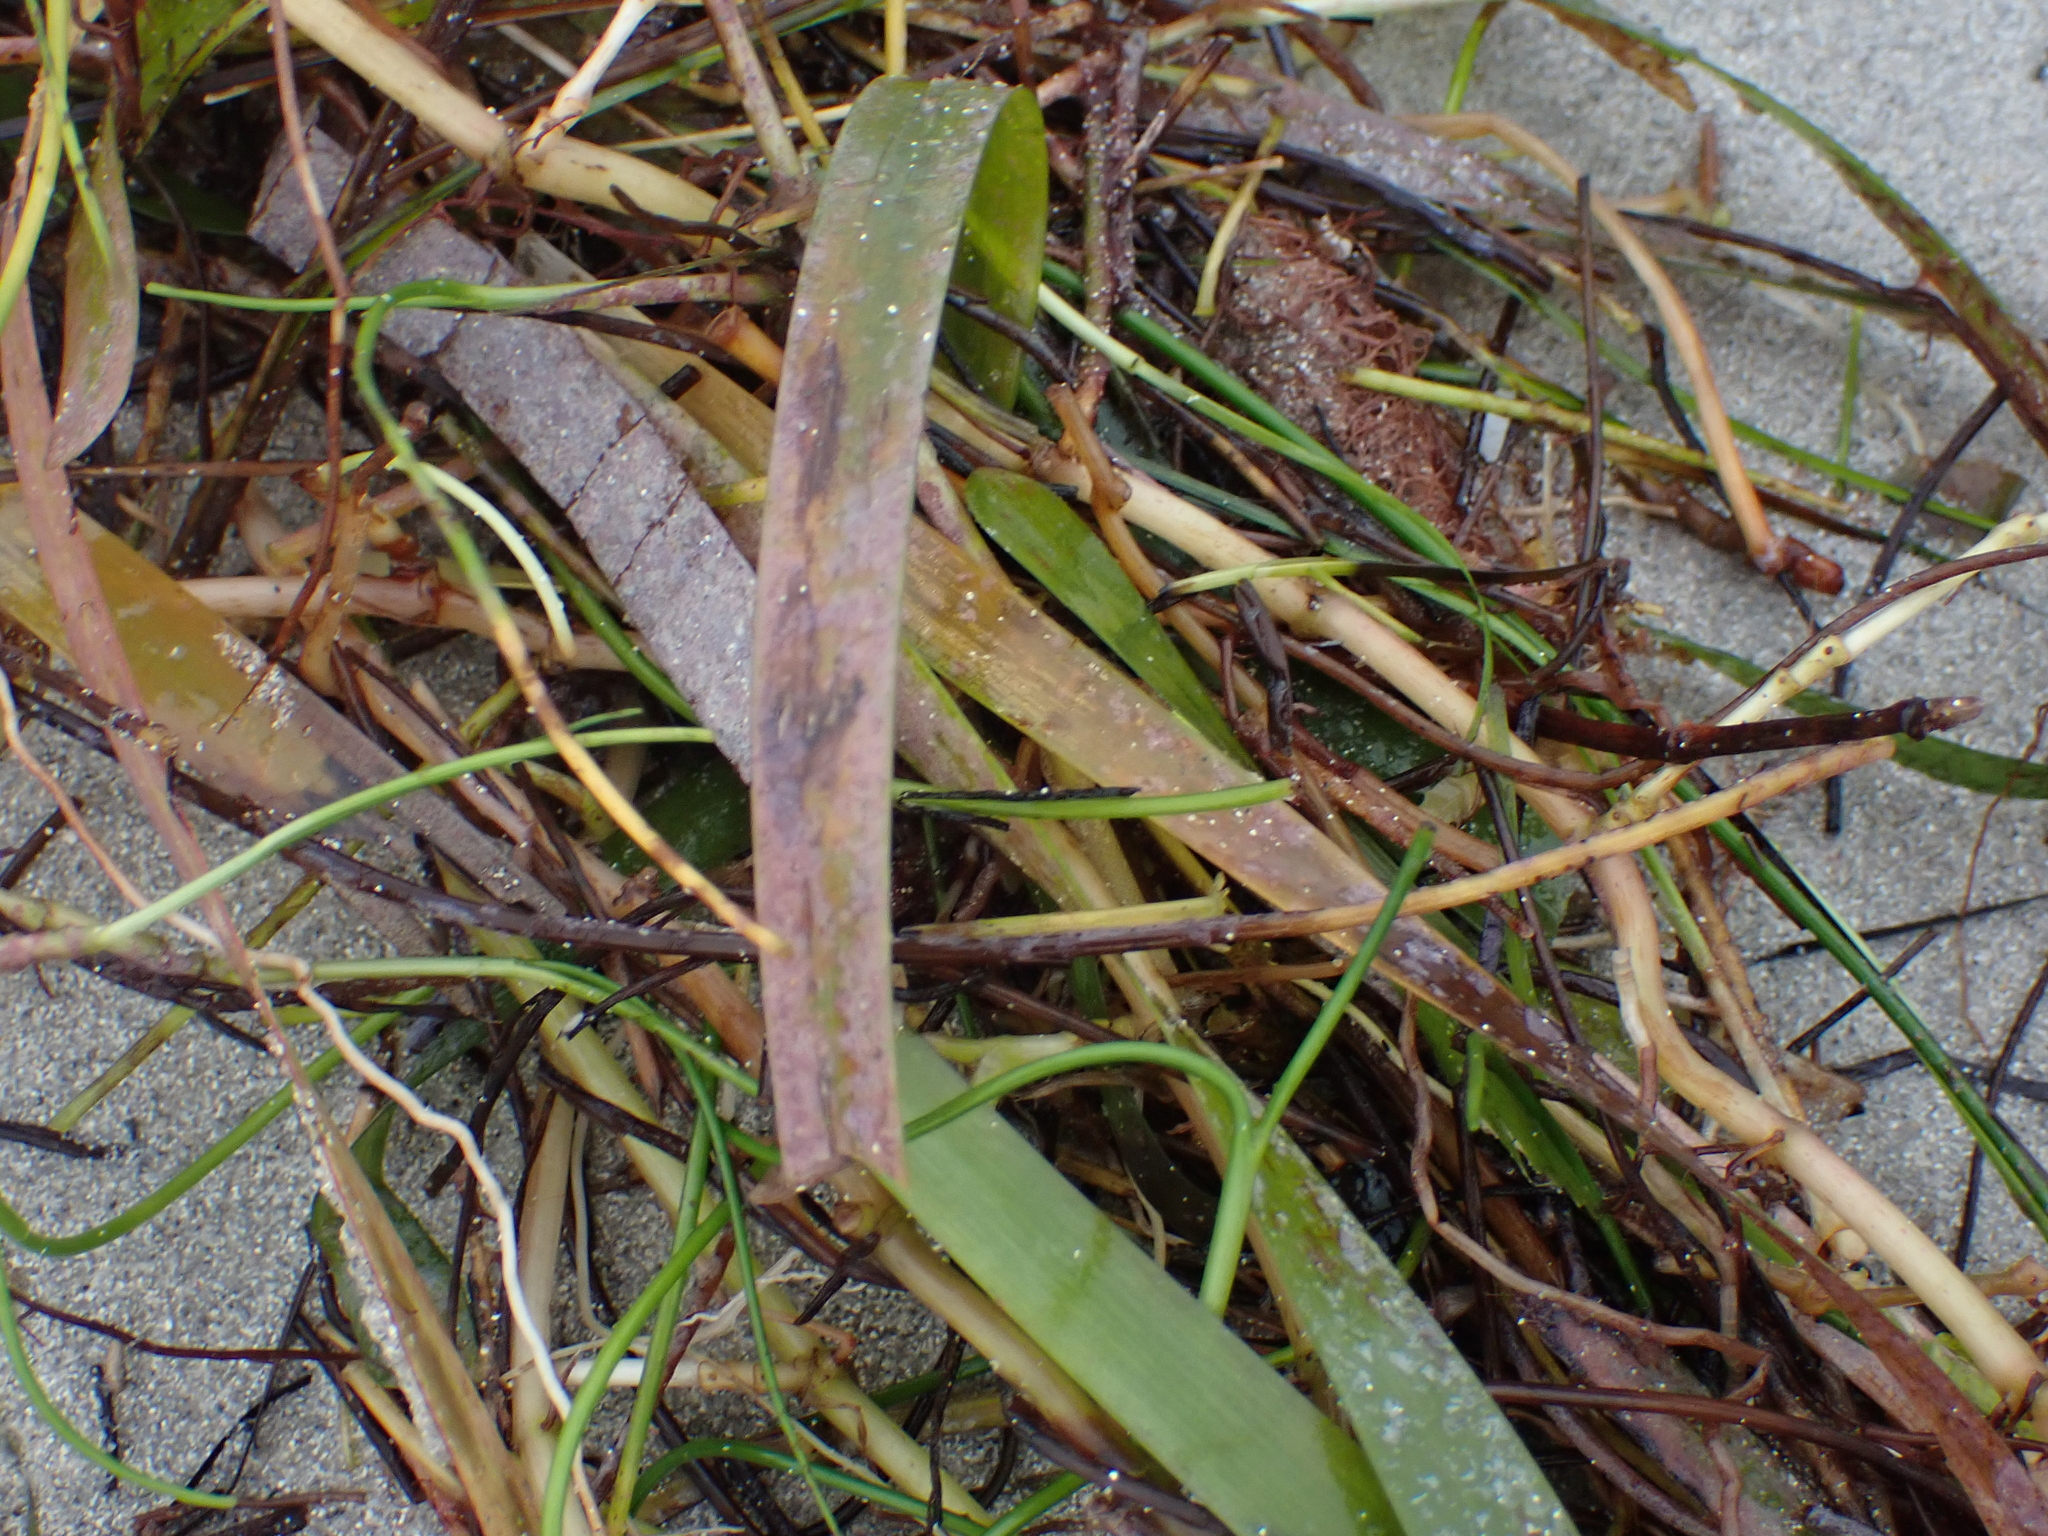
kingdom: Plantae
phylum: Tracheophyta
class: Liliopsida
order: Alismatales
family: Hydrocharitaceae
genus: Thalassia
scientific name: Thalassia testudinum
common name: Species code: tt
